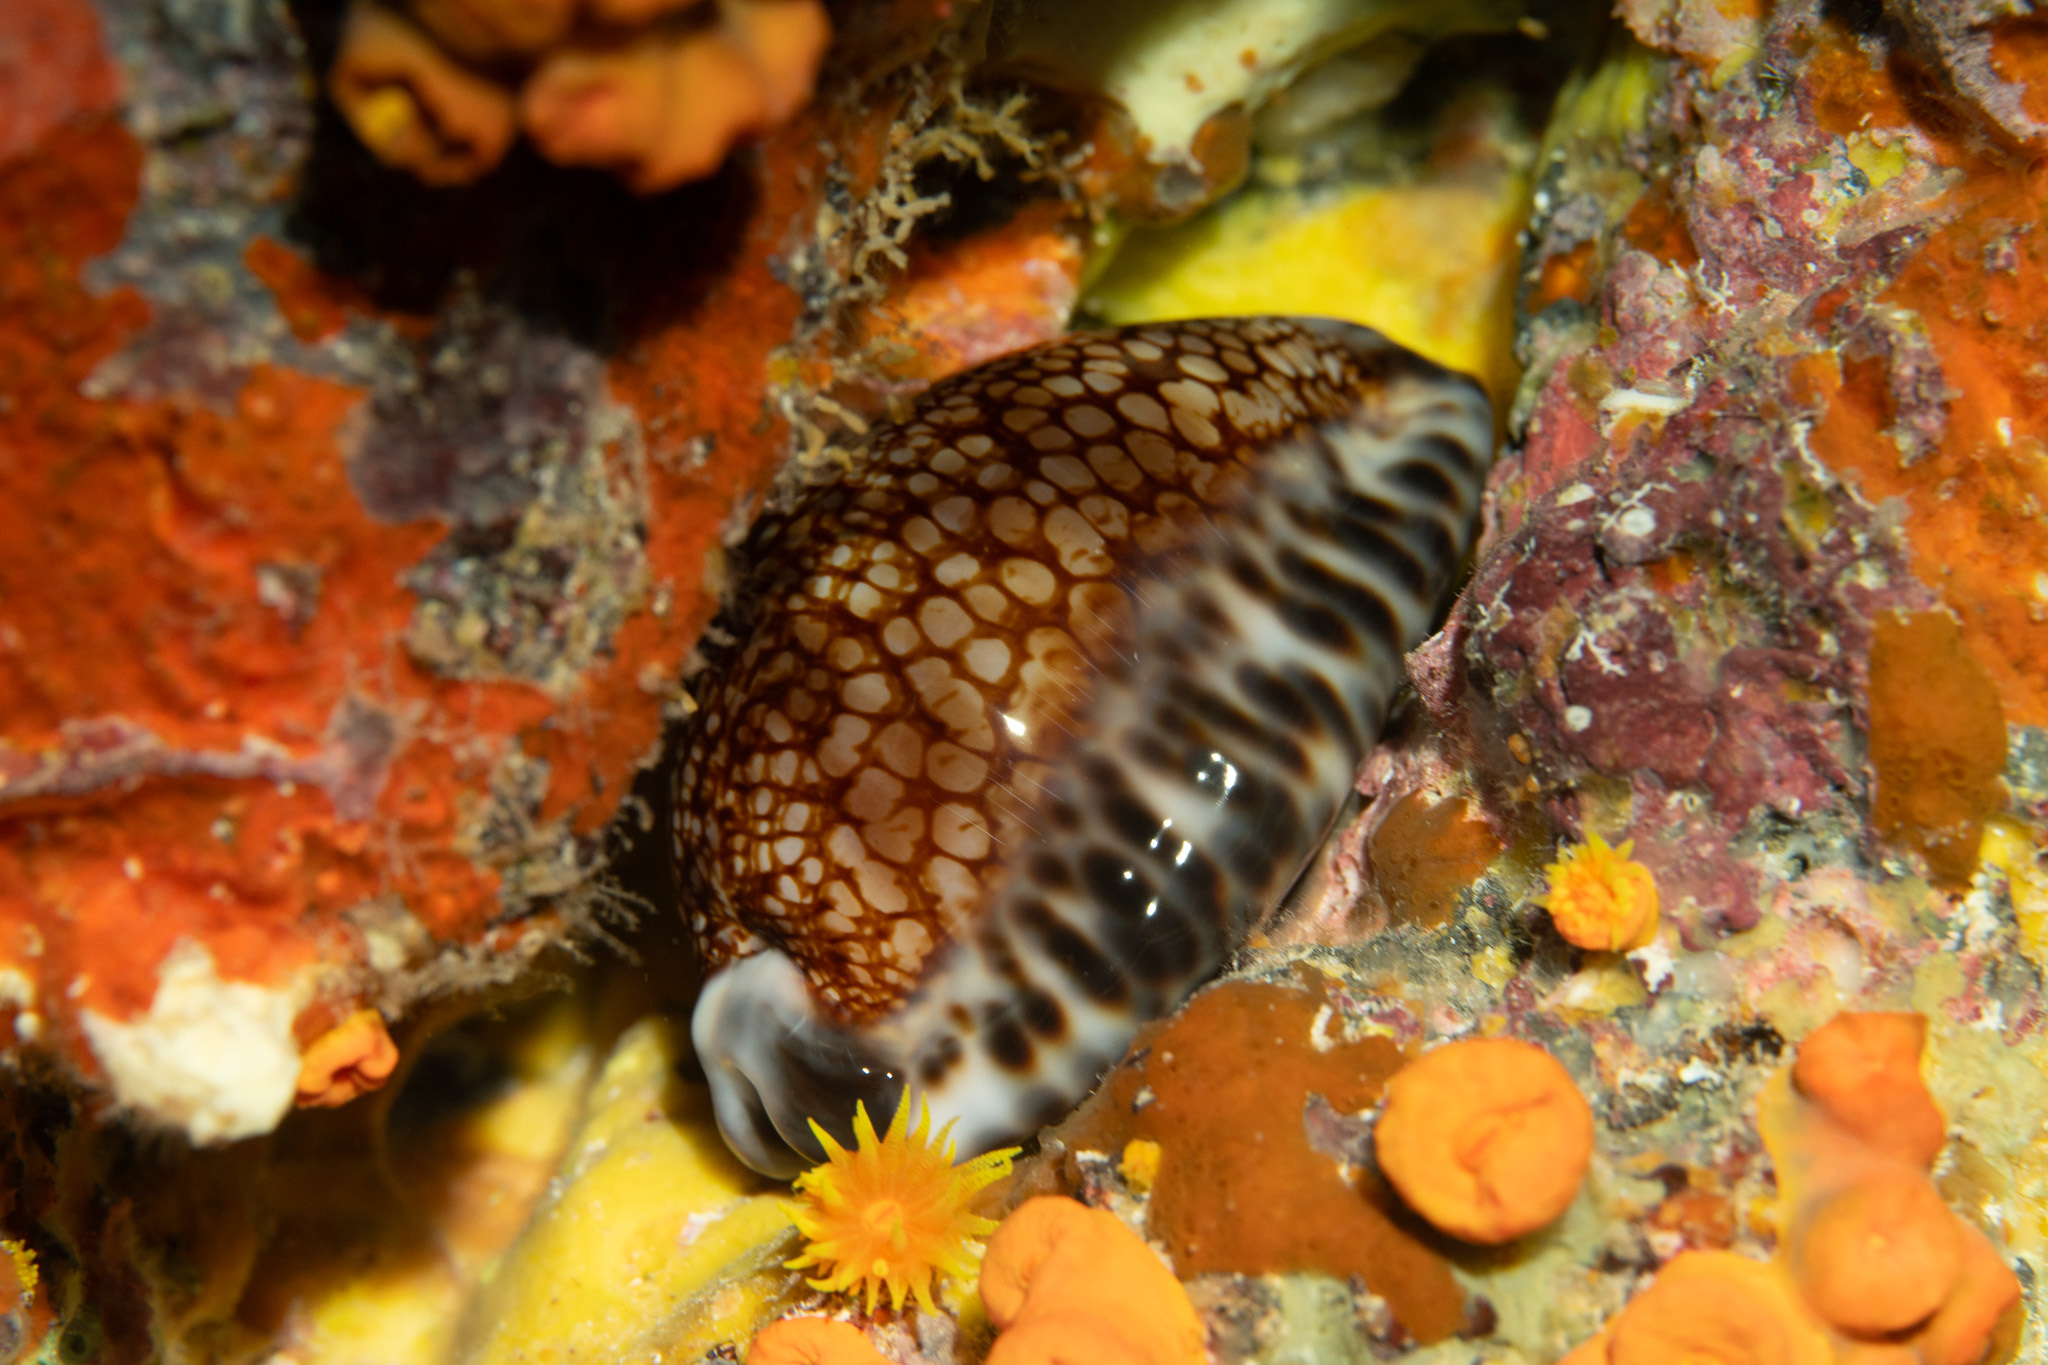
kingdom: Animalia
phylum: Mollusca
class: Gastropoda
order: Littorinimorpha
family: Cypraeidae
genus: Mauritia
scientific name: Mauritia maculifera
